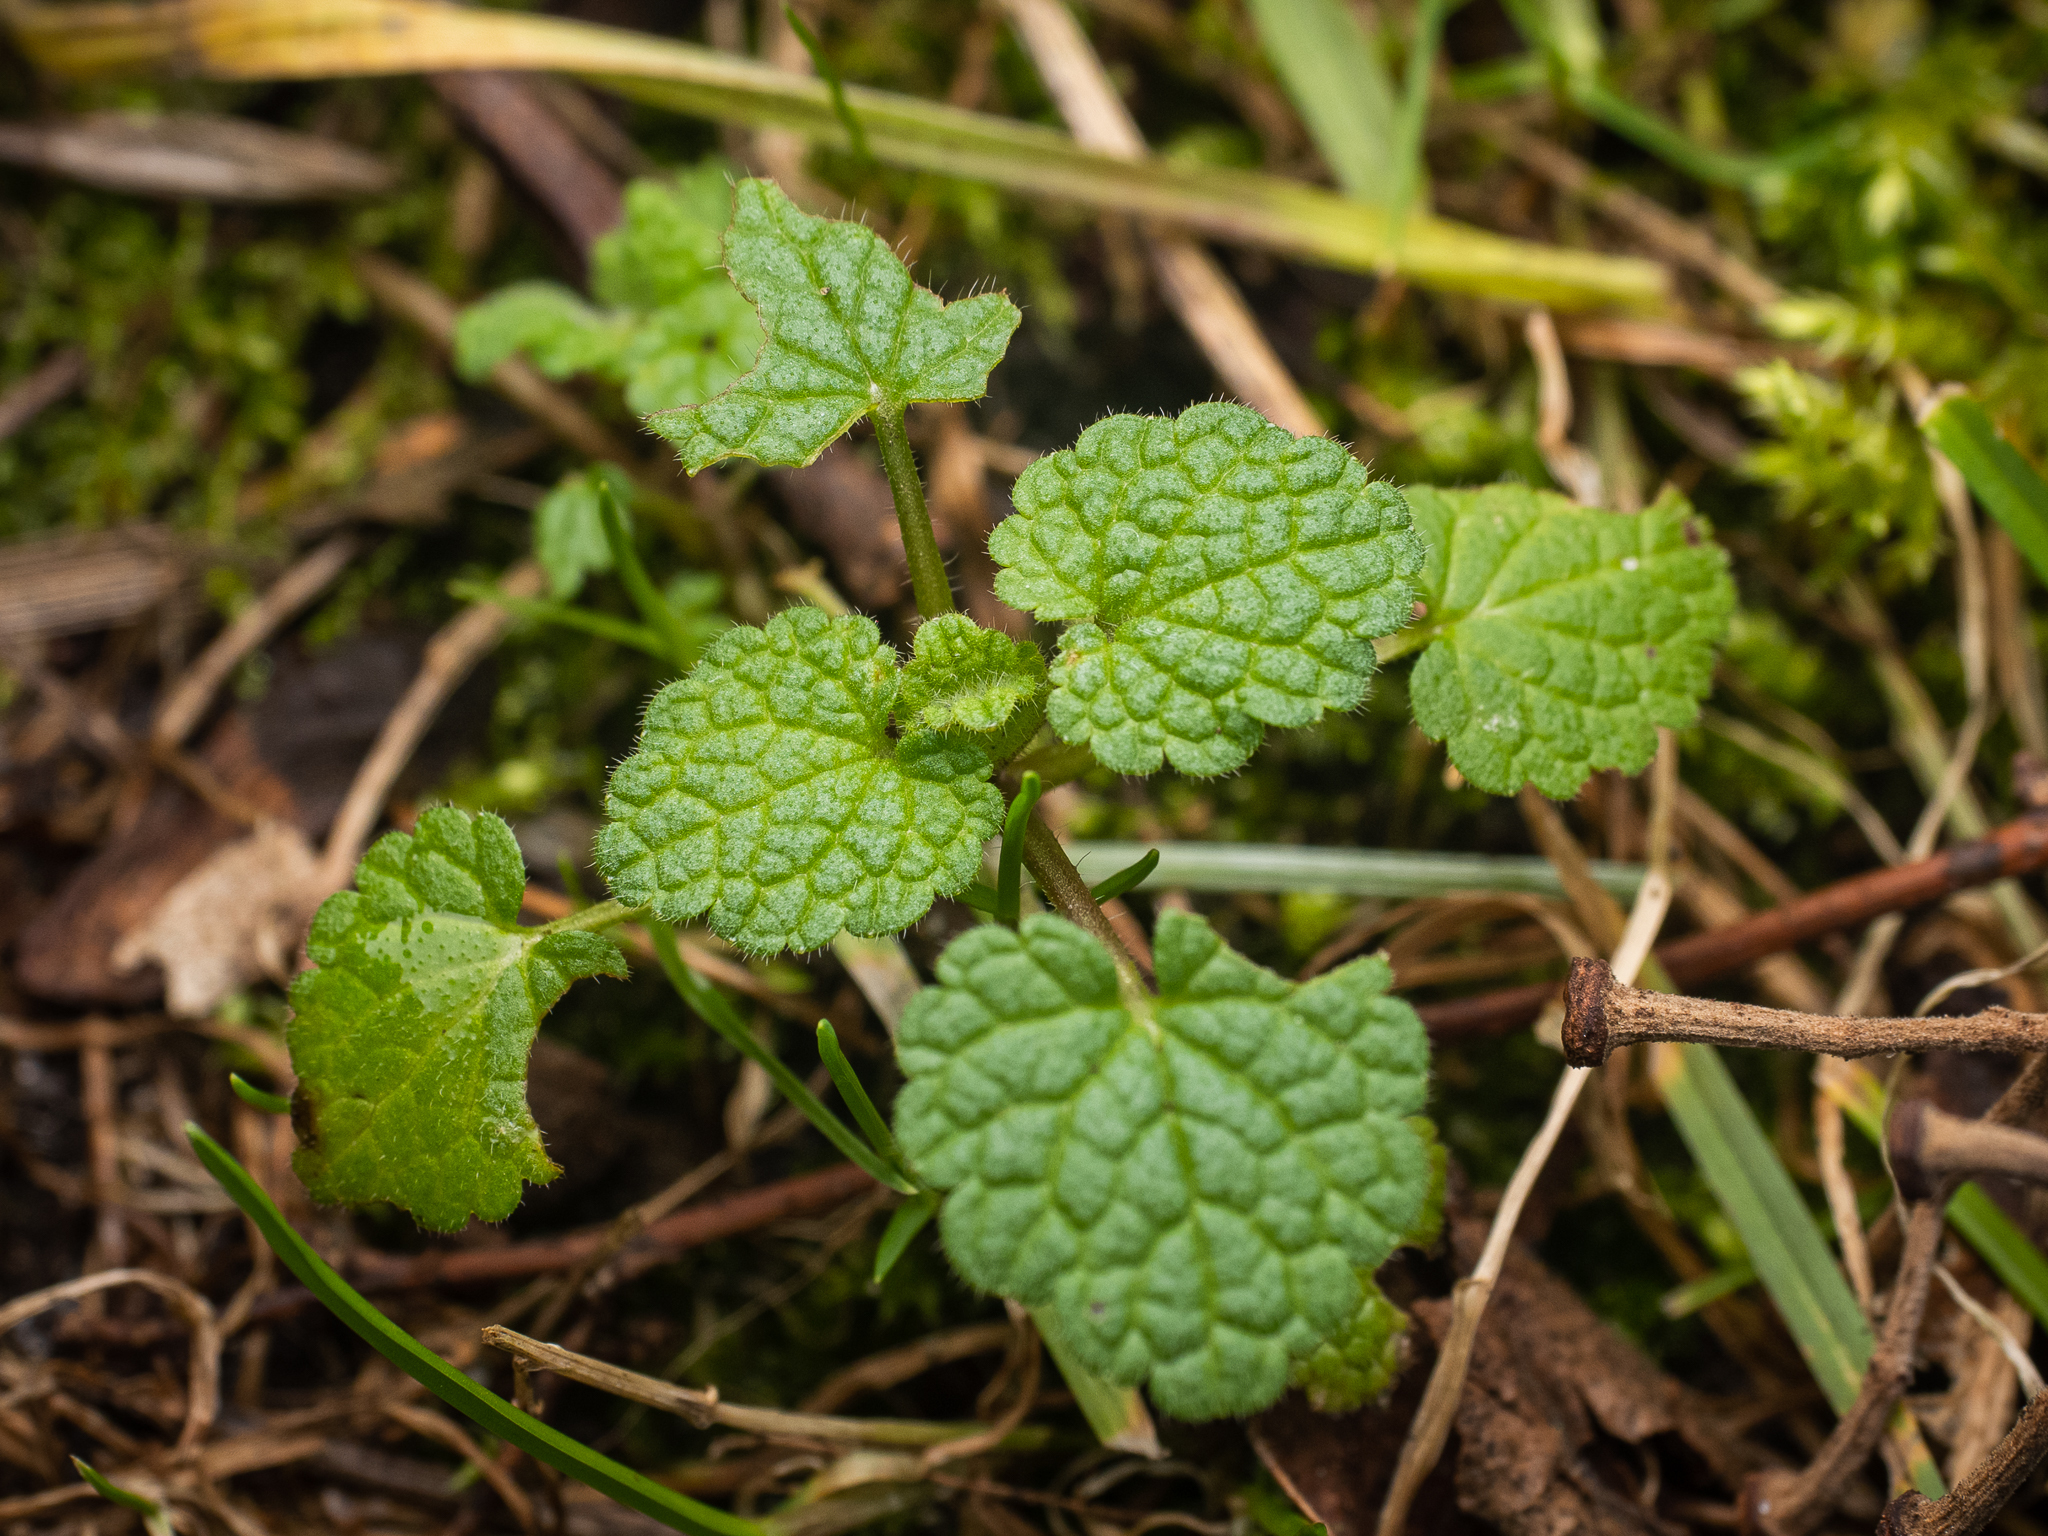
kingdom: Plantae
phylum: Tracheophyta
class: Magnoliopsida
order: Lamiales
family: Lamiaceae
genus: Lamium
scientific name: Lamium purpureum
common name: Red dead-nettle
